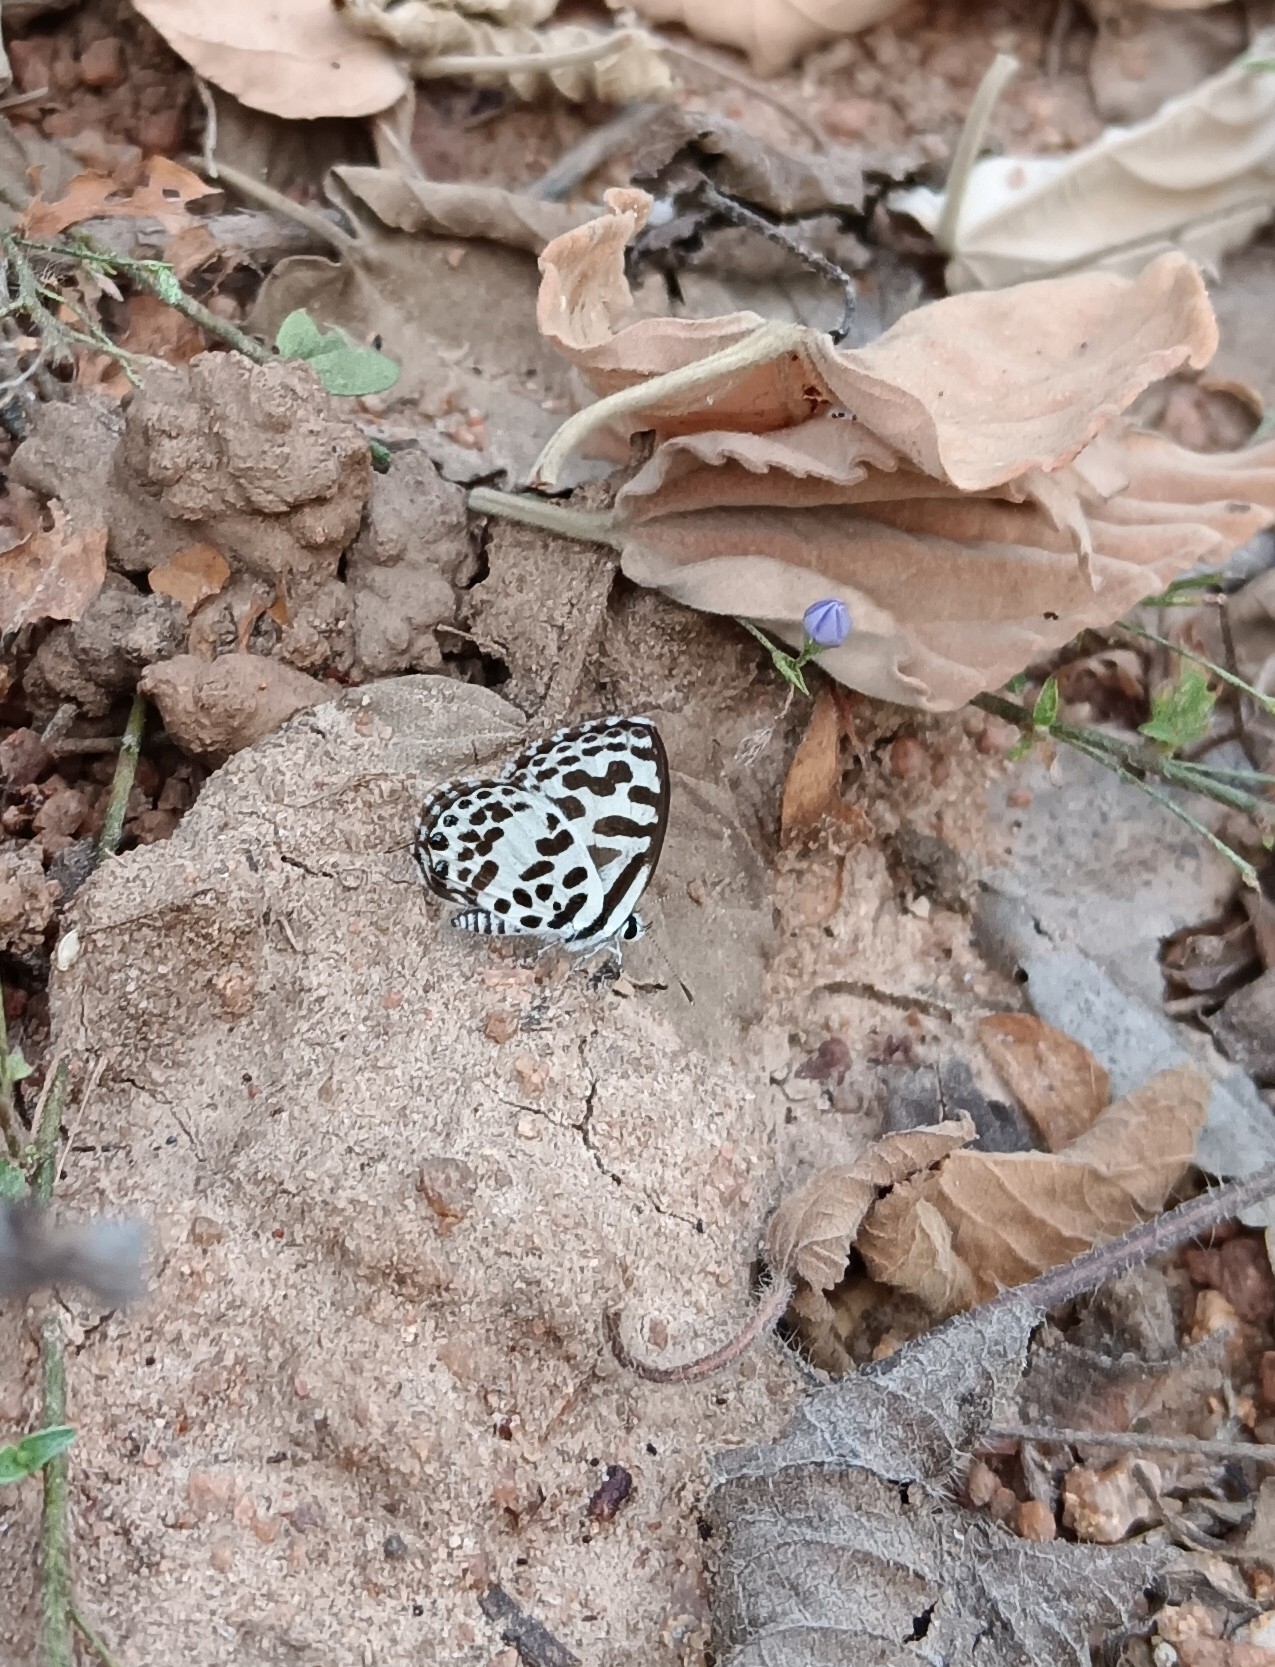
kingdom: Animalia
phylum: Arthropoda
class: Insecta
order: Lepidoptera
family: Lycaenidae
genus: Castalius
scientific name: Castalius rosimon
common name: Common pierrot
